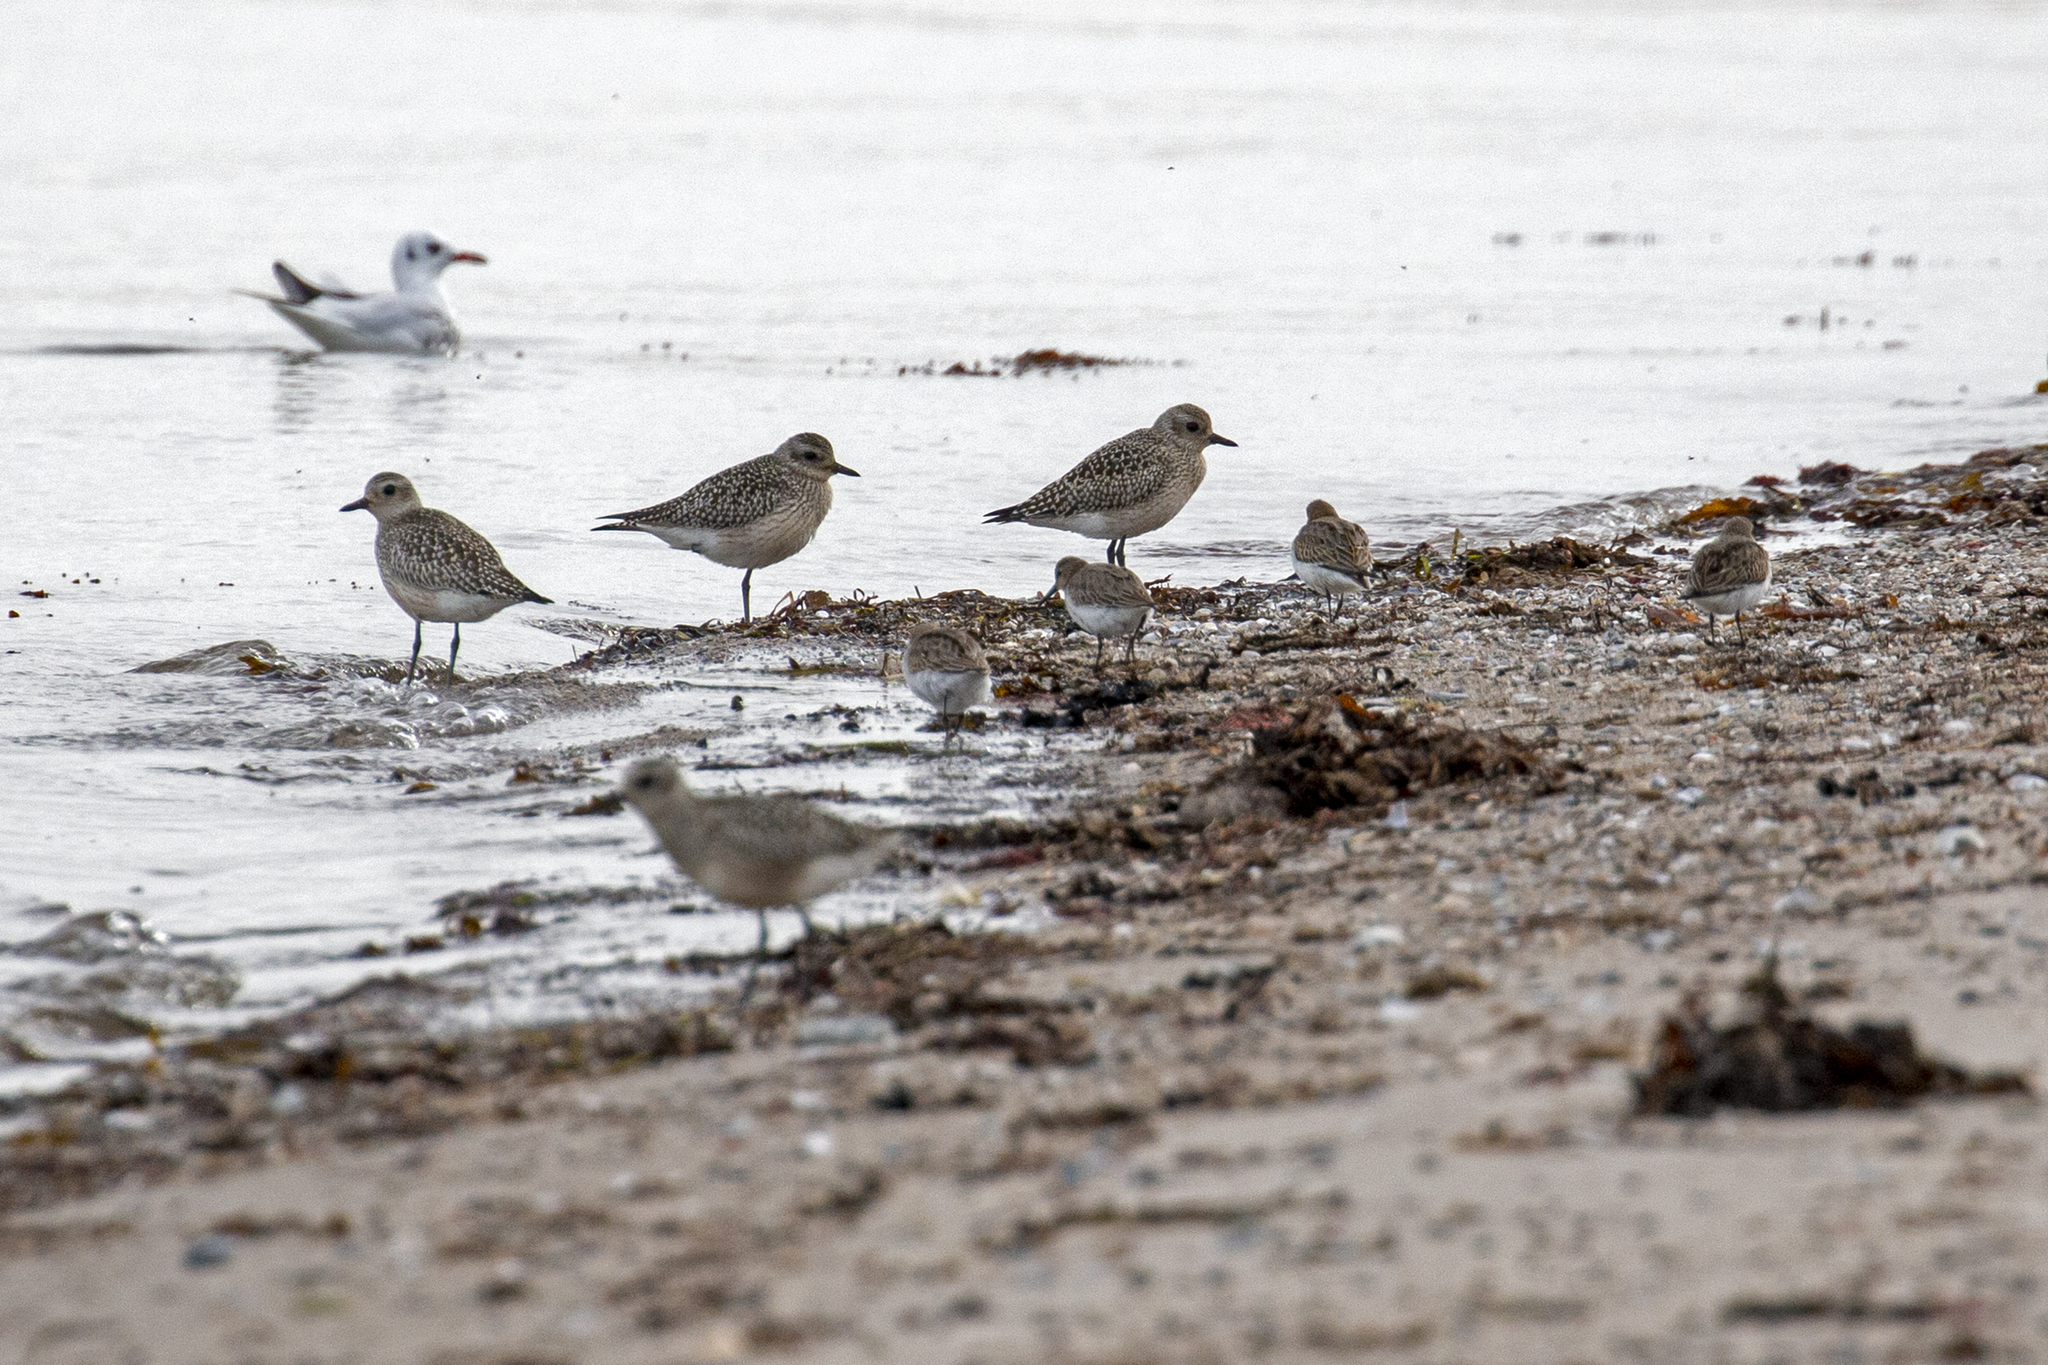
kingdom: Animalia
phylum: Chordata
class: Aves
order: Charadriiformes
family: Charadriidae
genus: Pluvialis
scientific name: Pluvialis apricaria
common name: European golden plover
